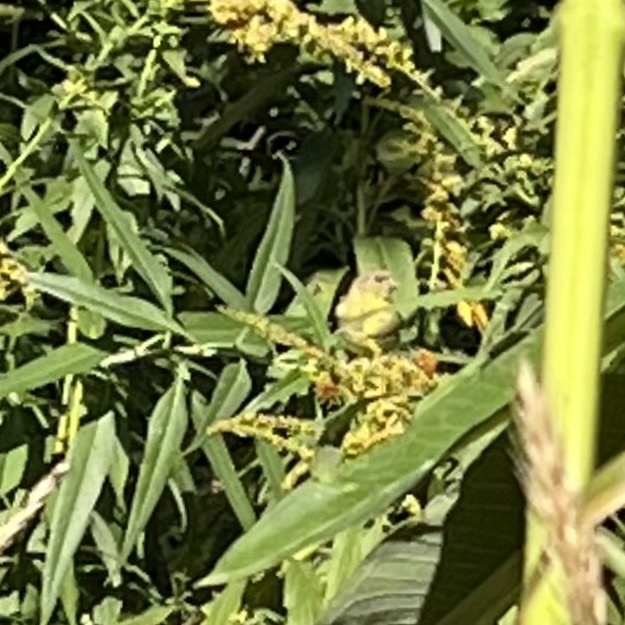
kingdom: Animalia
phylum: Chordata
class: Aves
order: Passeriformes
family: Fringillidae
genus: Spinus
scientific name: Spinus tristis
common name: American goldfinch
